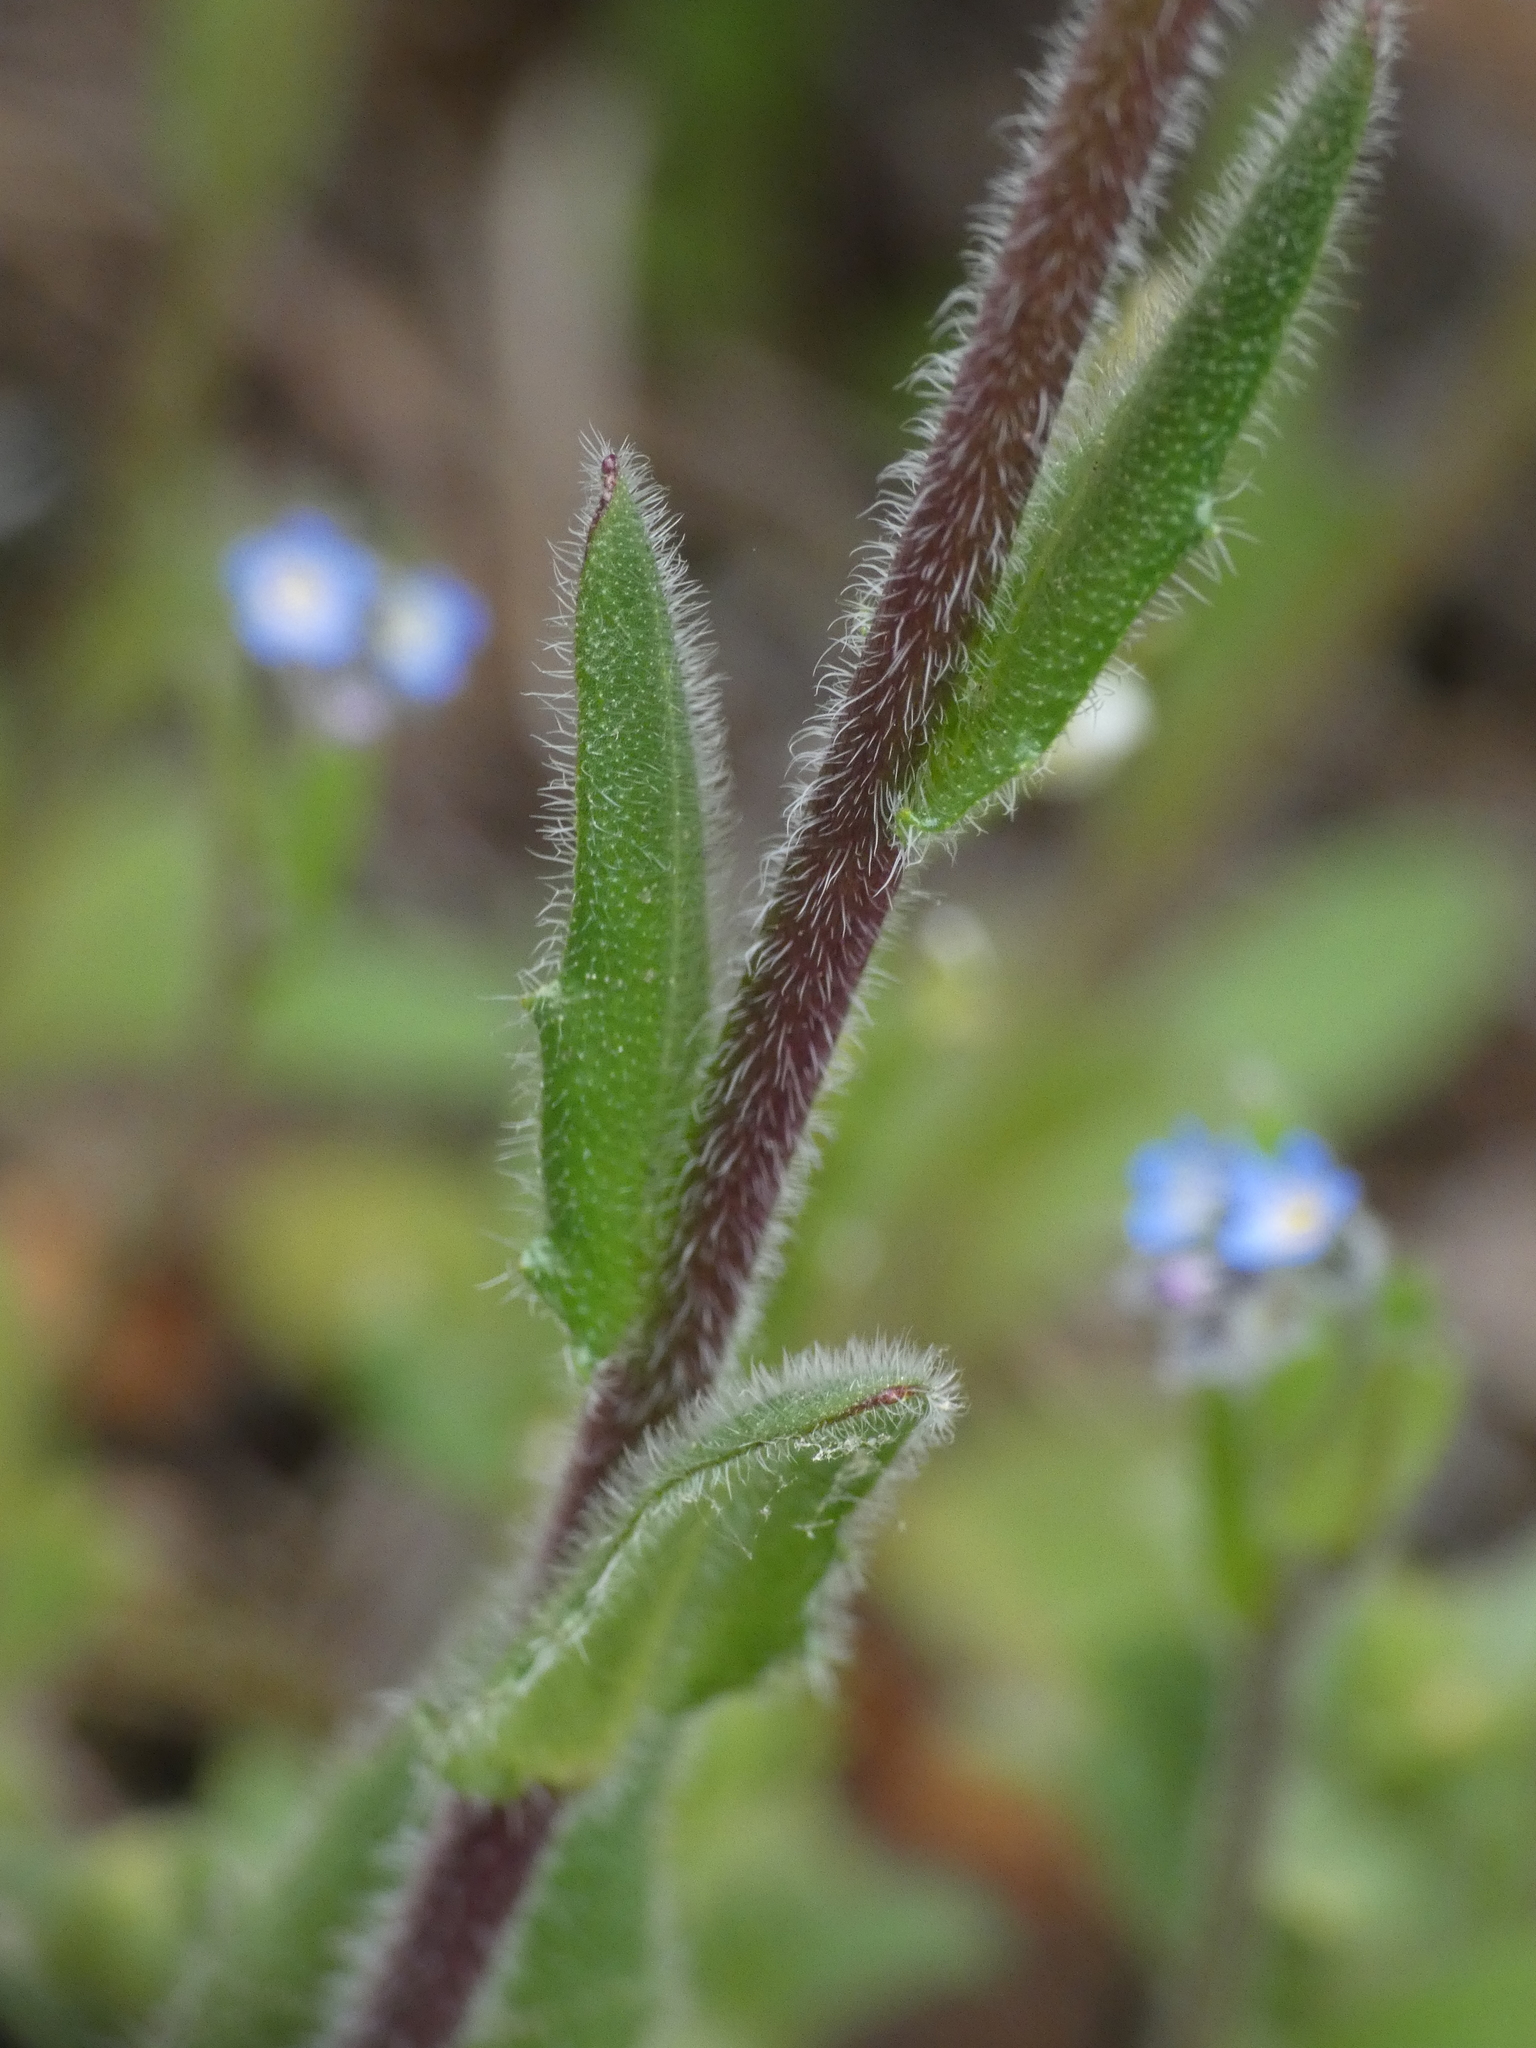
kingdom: Plantae
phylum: Tracheophyta
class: Magnoliopsida
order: Brassicales
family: Brassicaceae
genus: Arabis
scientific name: Arabis hirsuta
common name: Hairy rock-cress
